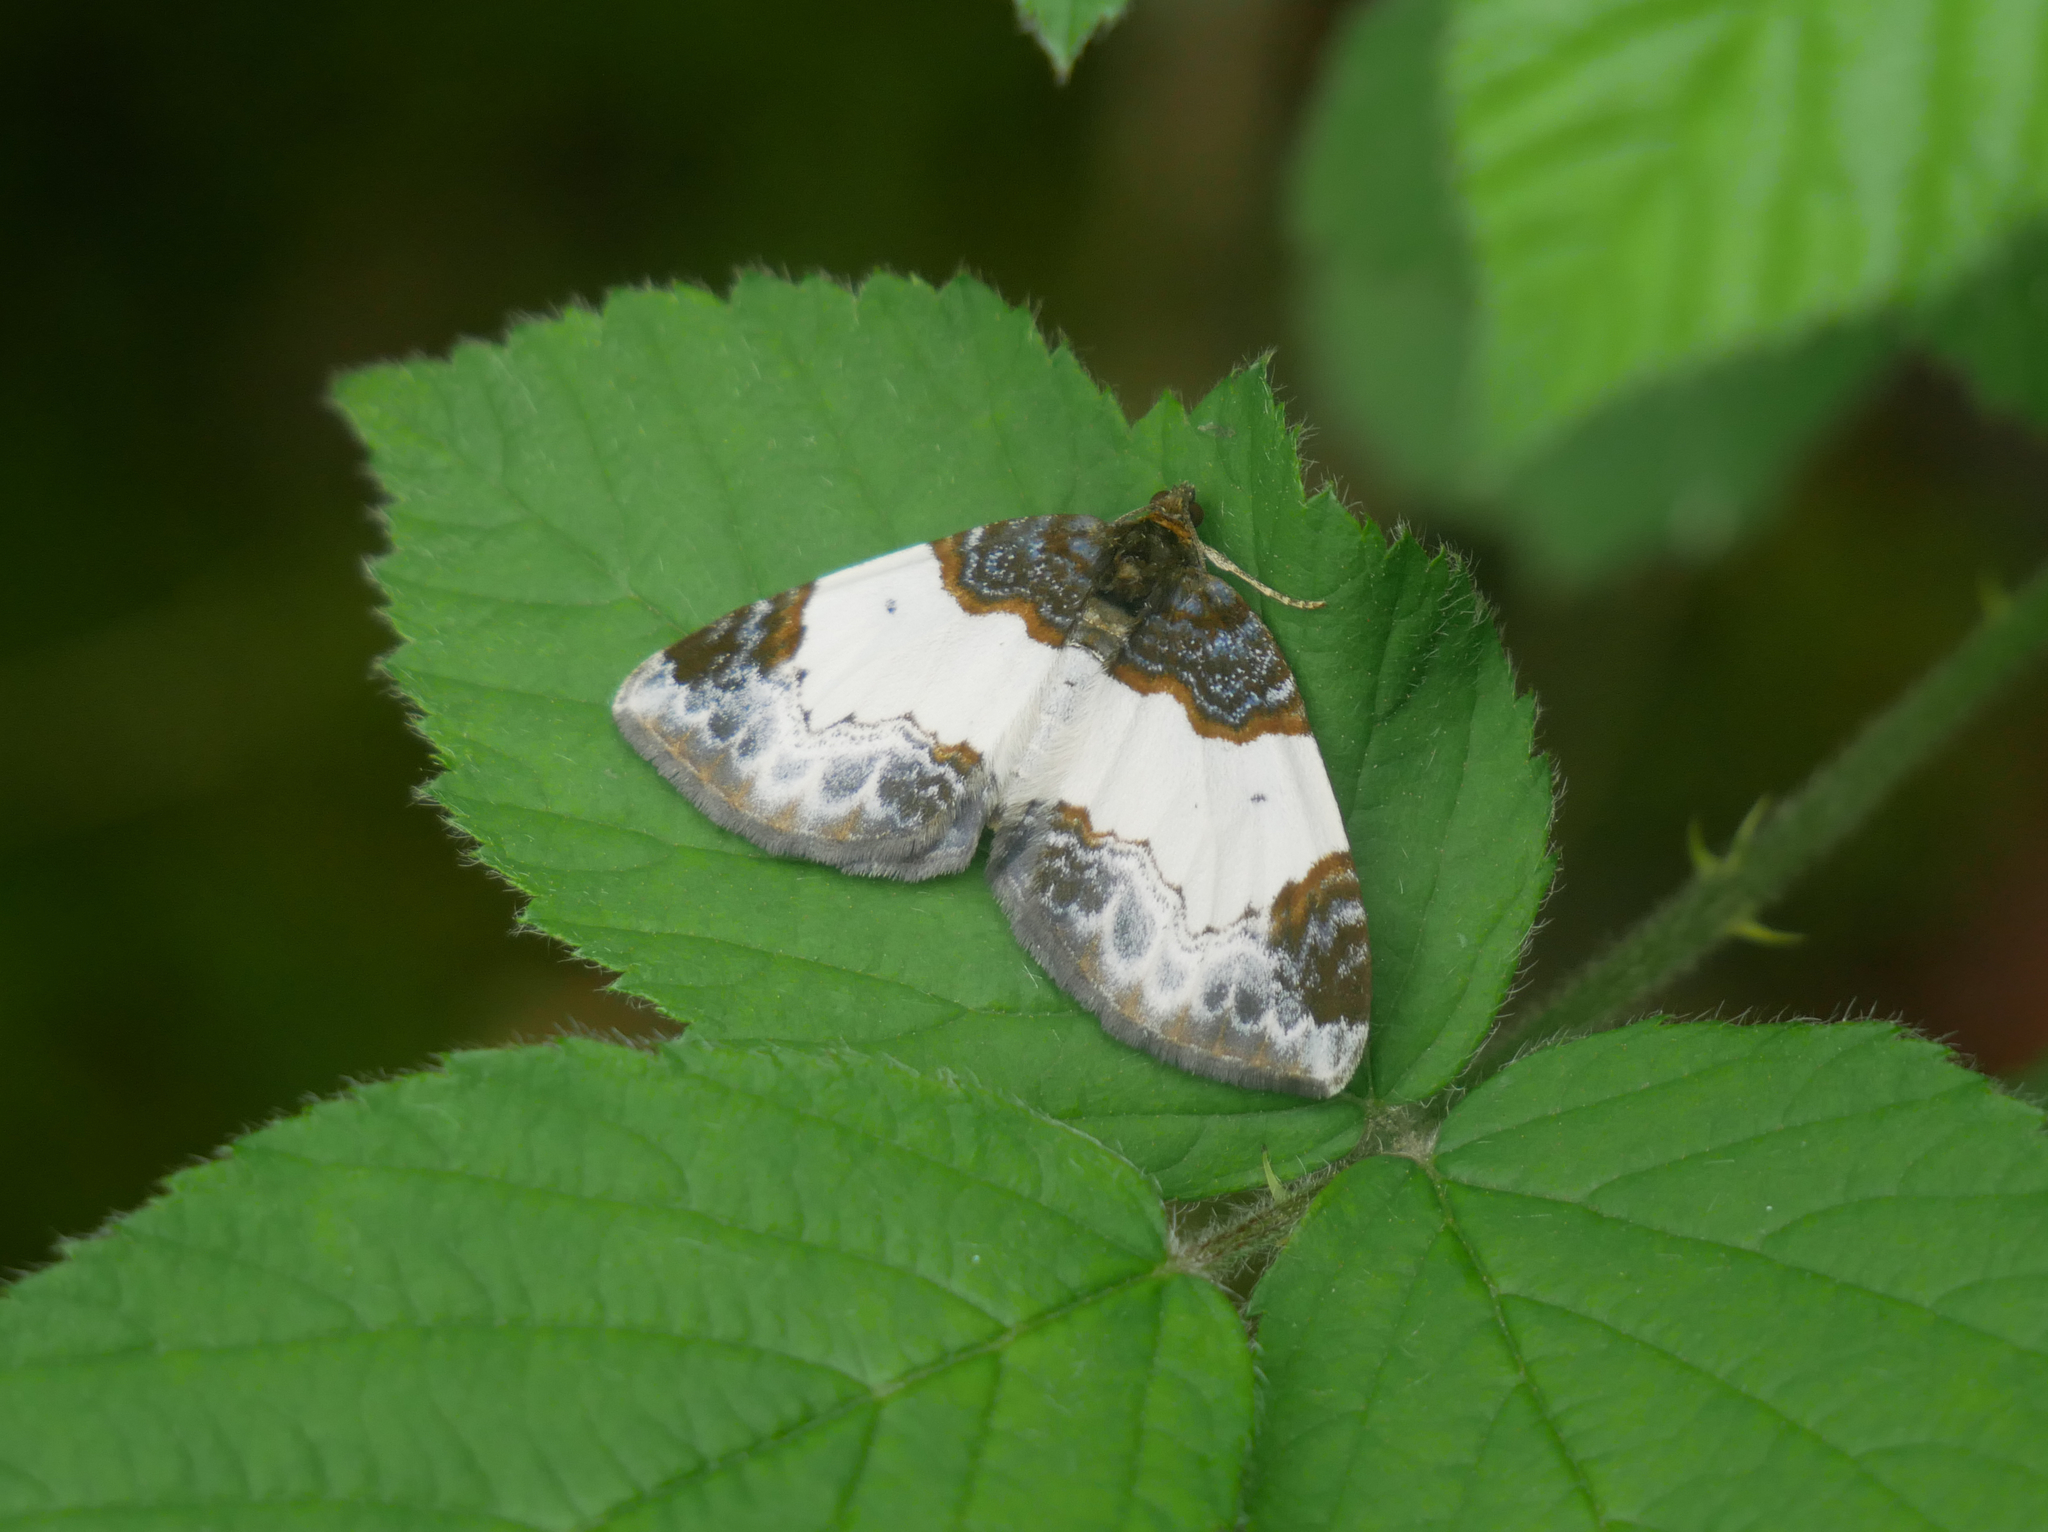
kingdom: Animalia
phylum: Arthropoda
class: Insecta
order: Lepidoptera
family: Geometridae
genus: Mesoleuca
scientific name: Mesoleuca albicillata
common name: Beautiful carpet
